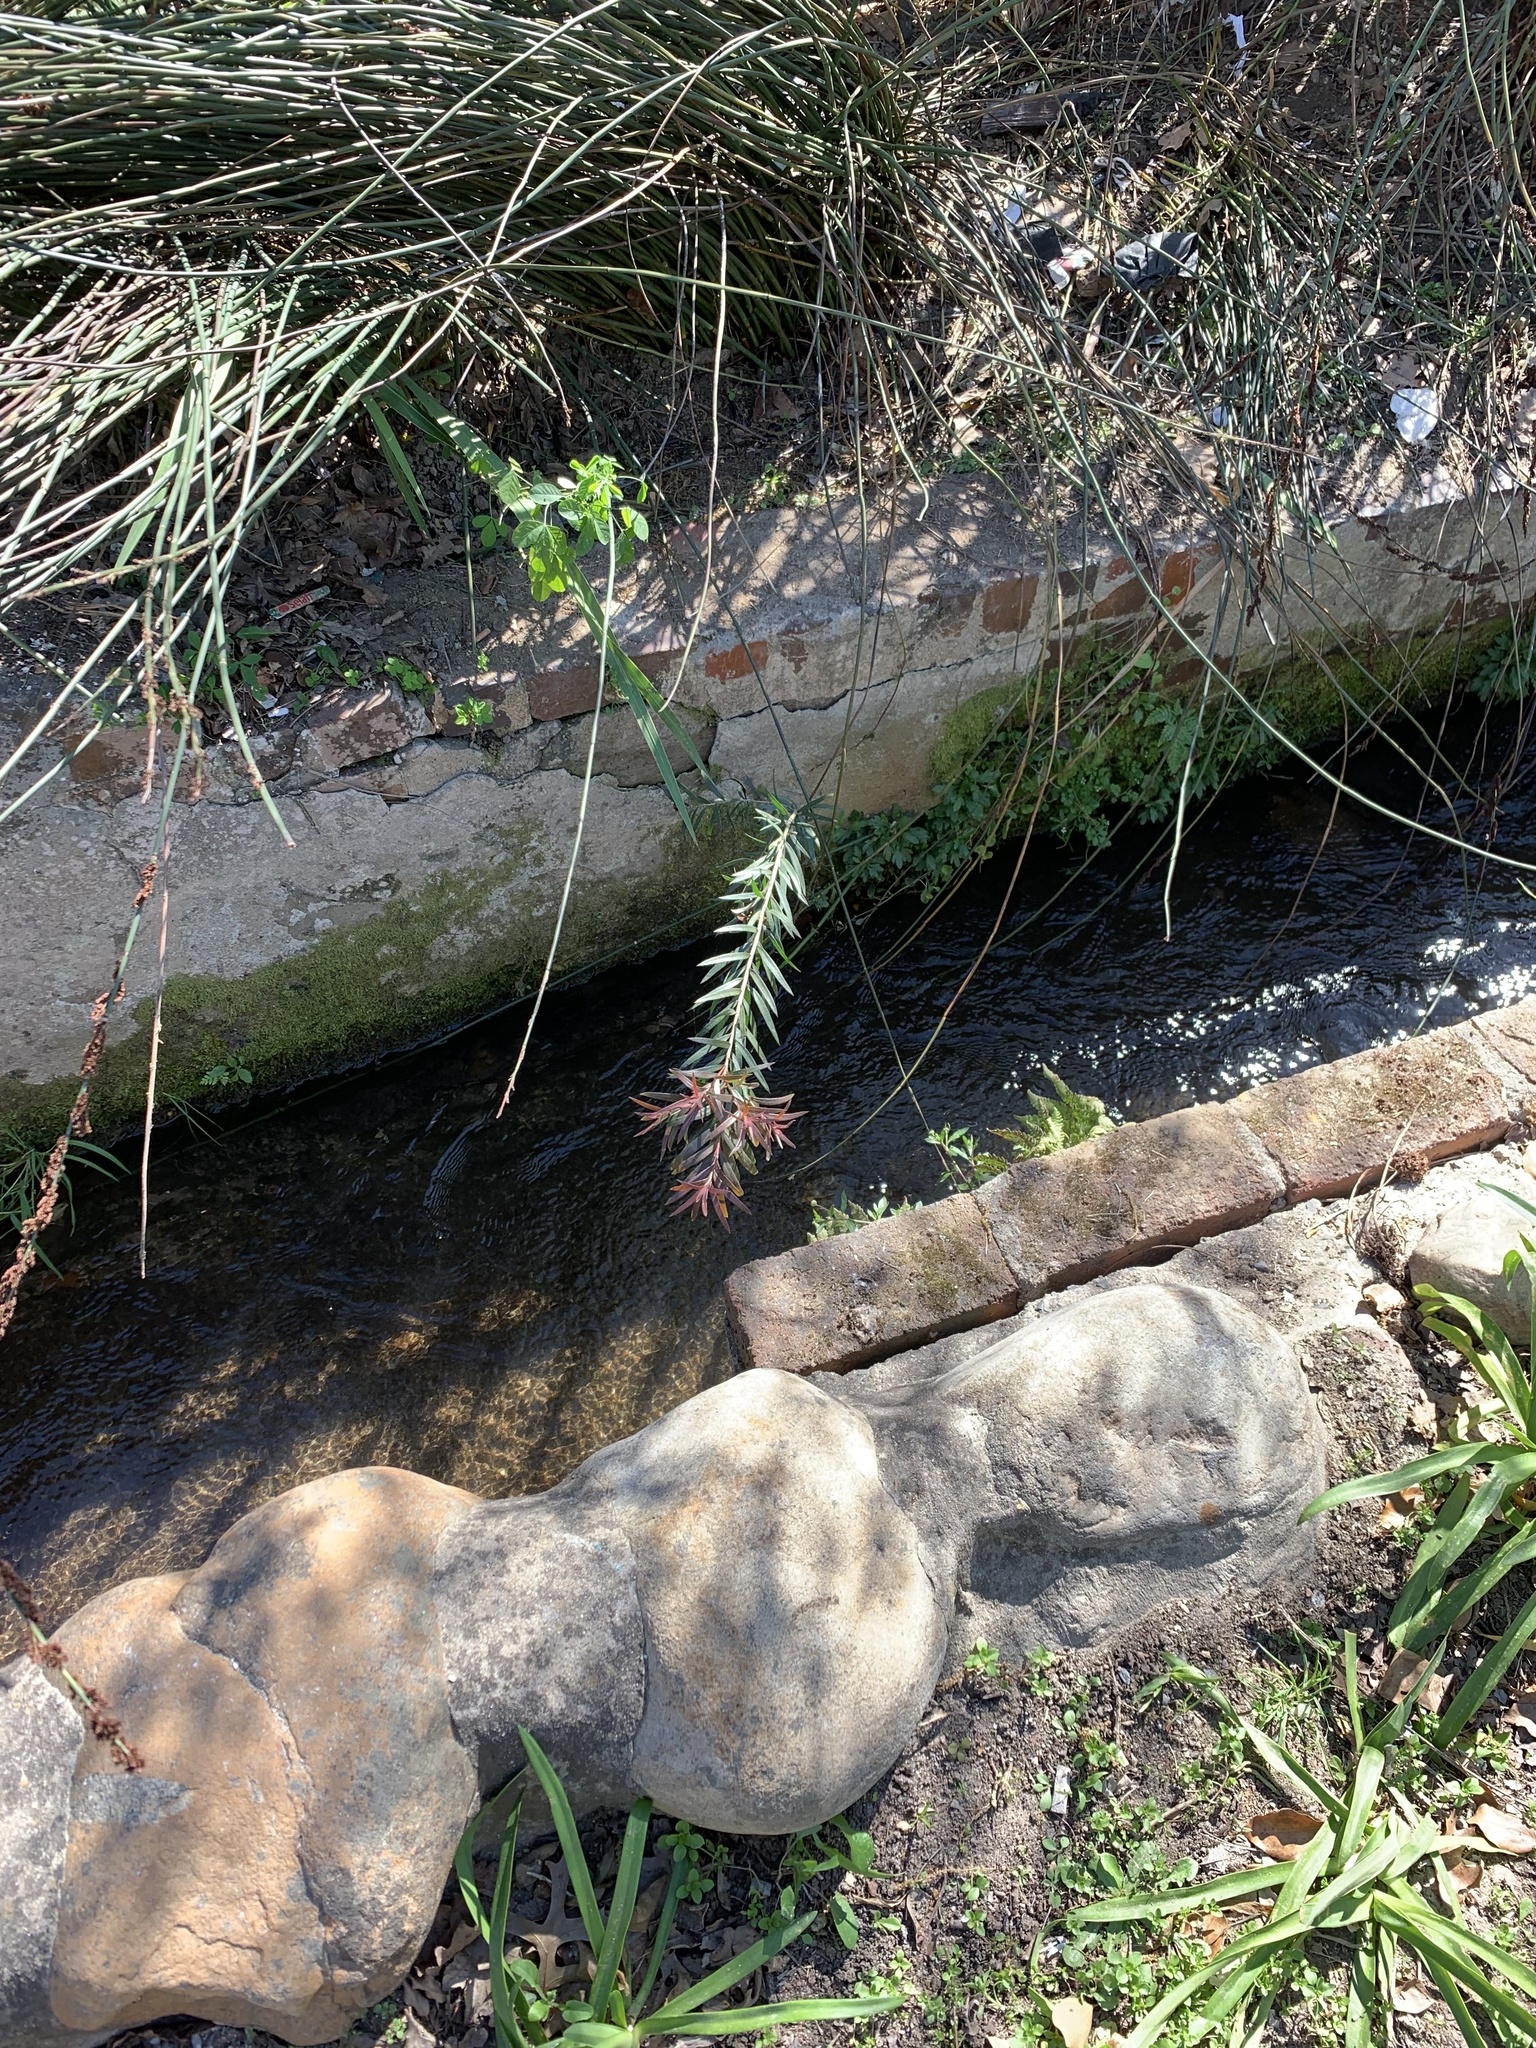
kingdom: Plantae
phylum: Tracheophyta
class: Magnoliopsida
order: Myrtales
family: Myrtaceae
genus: Callistemon
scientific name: Callistemon viminalis
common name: Drooping bottlebrush
